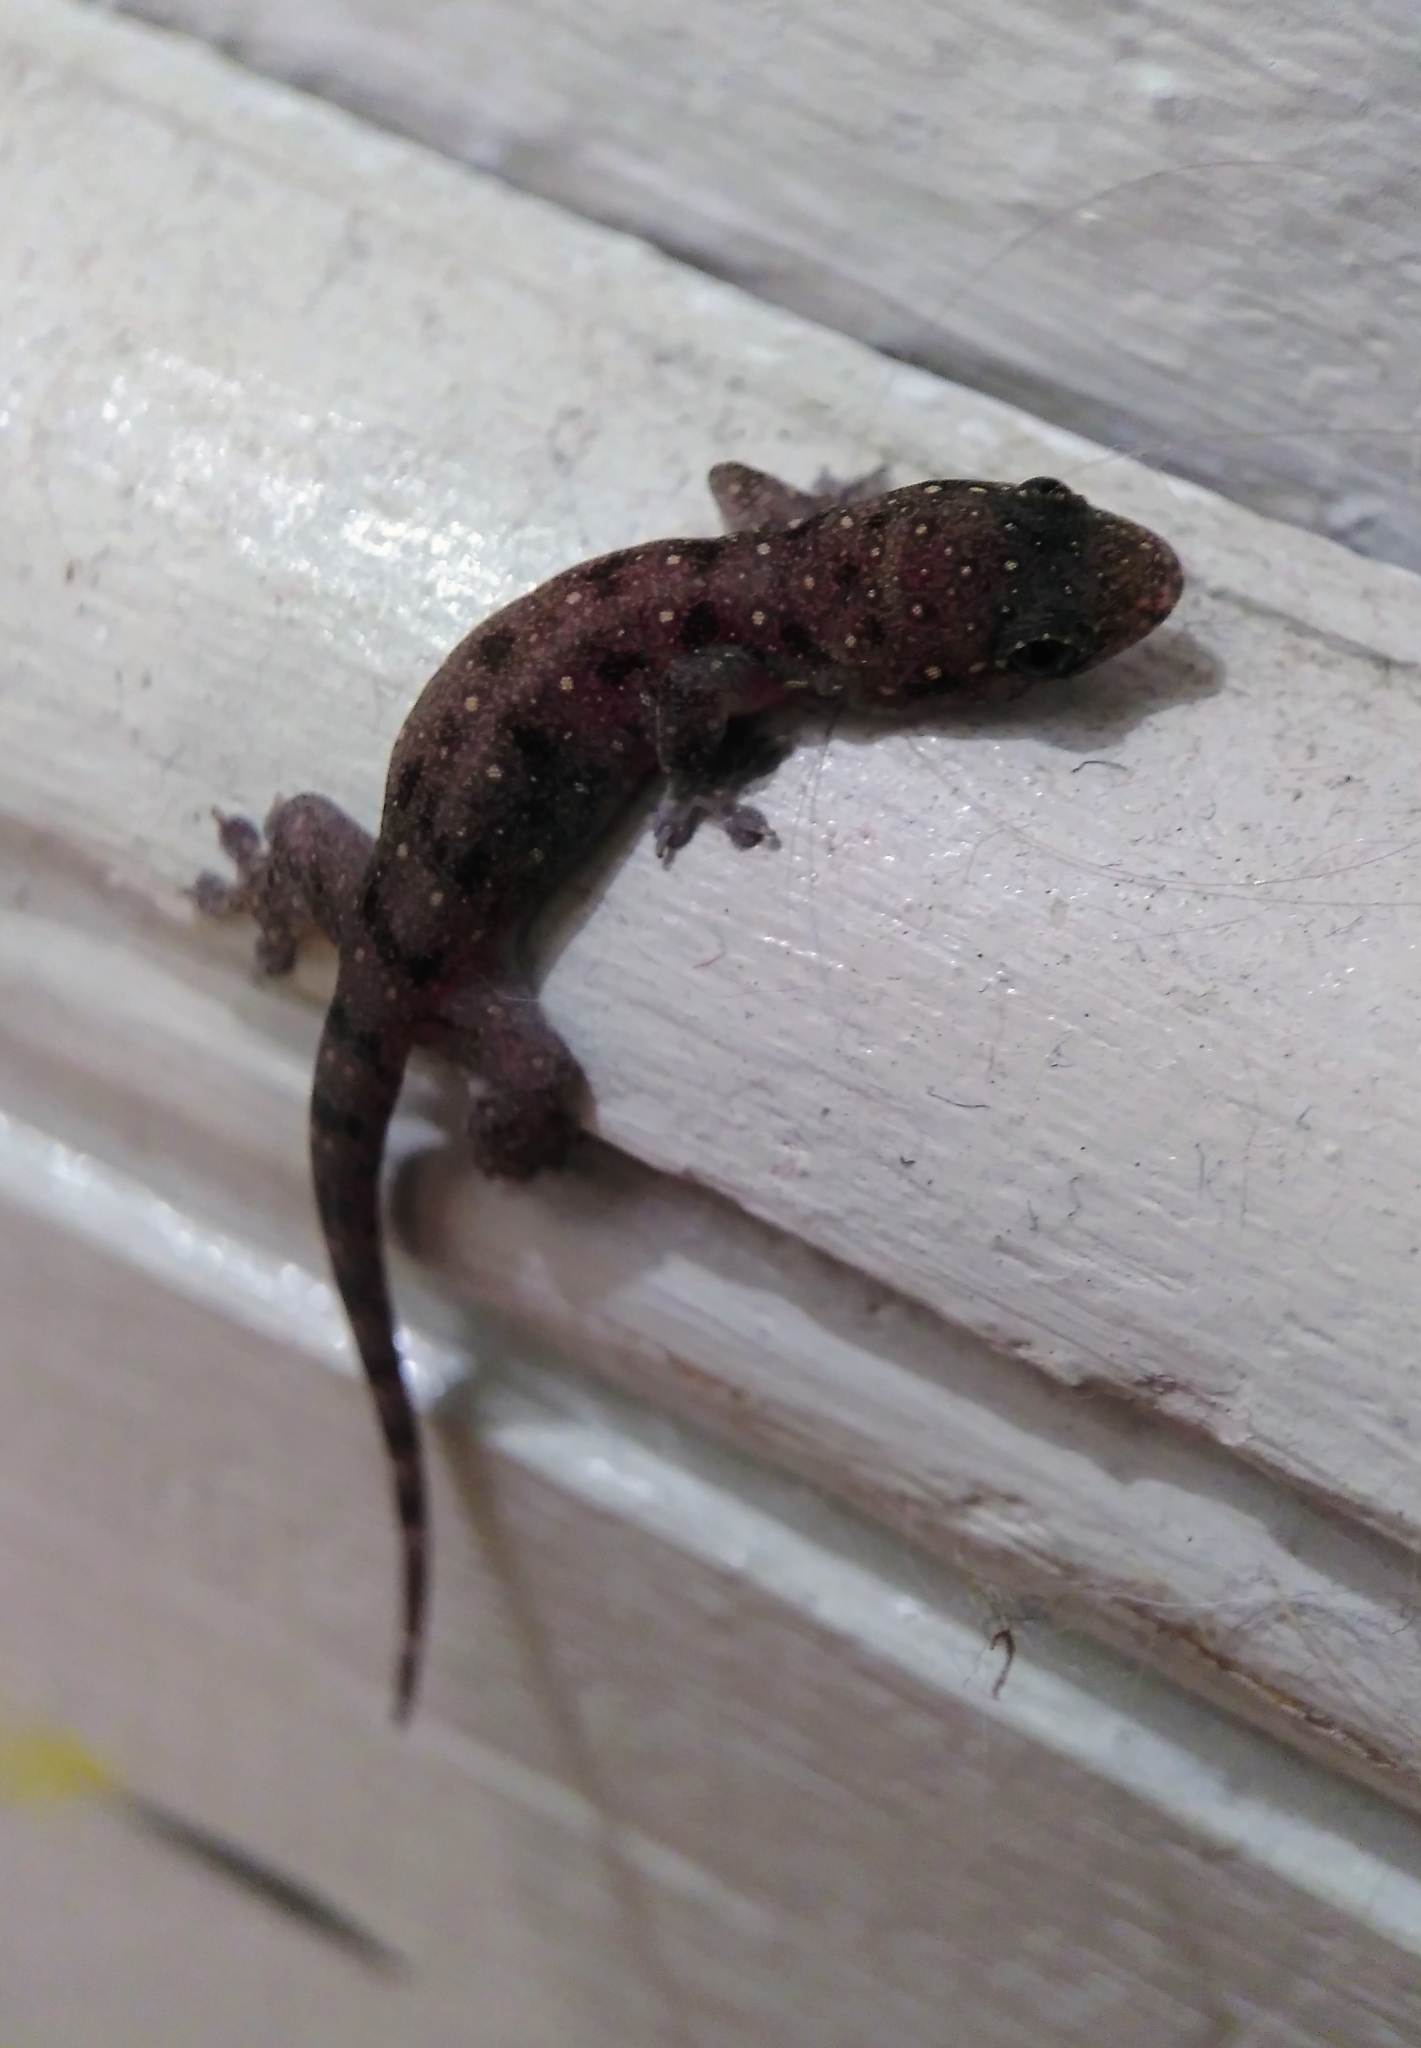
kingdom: Animalia
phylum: Chordata
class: Squamata
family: Gekkonidae
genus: Gehyra
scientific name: Gehyra mutilata
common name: Stump-toed gecko
